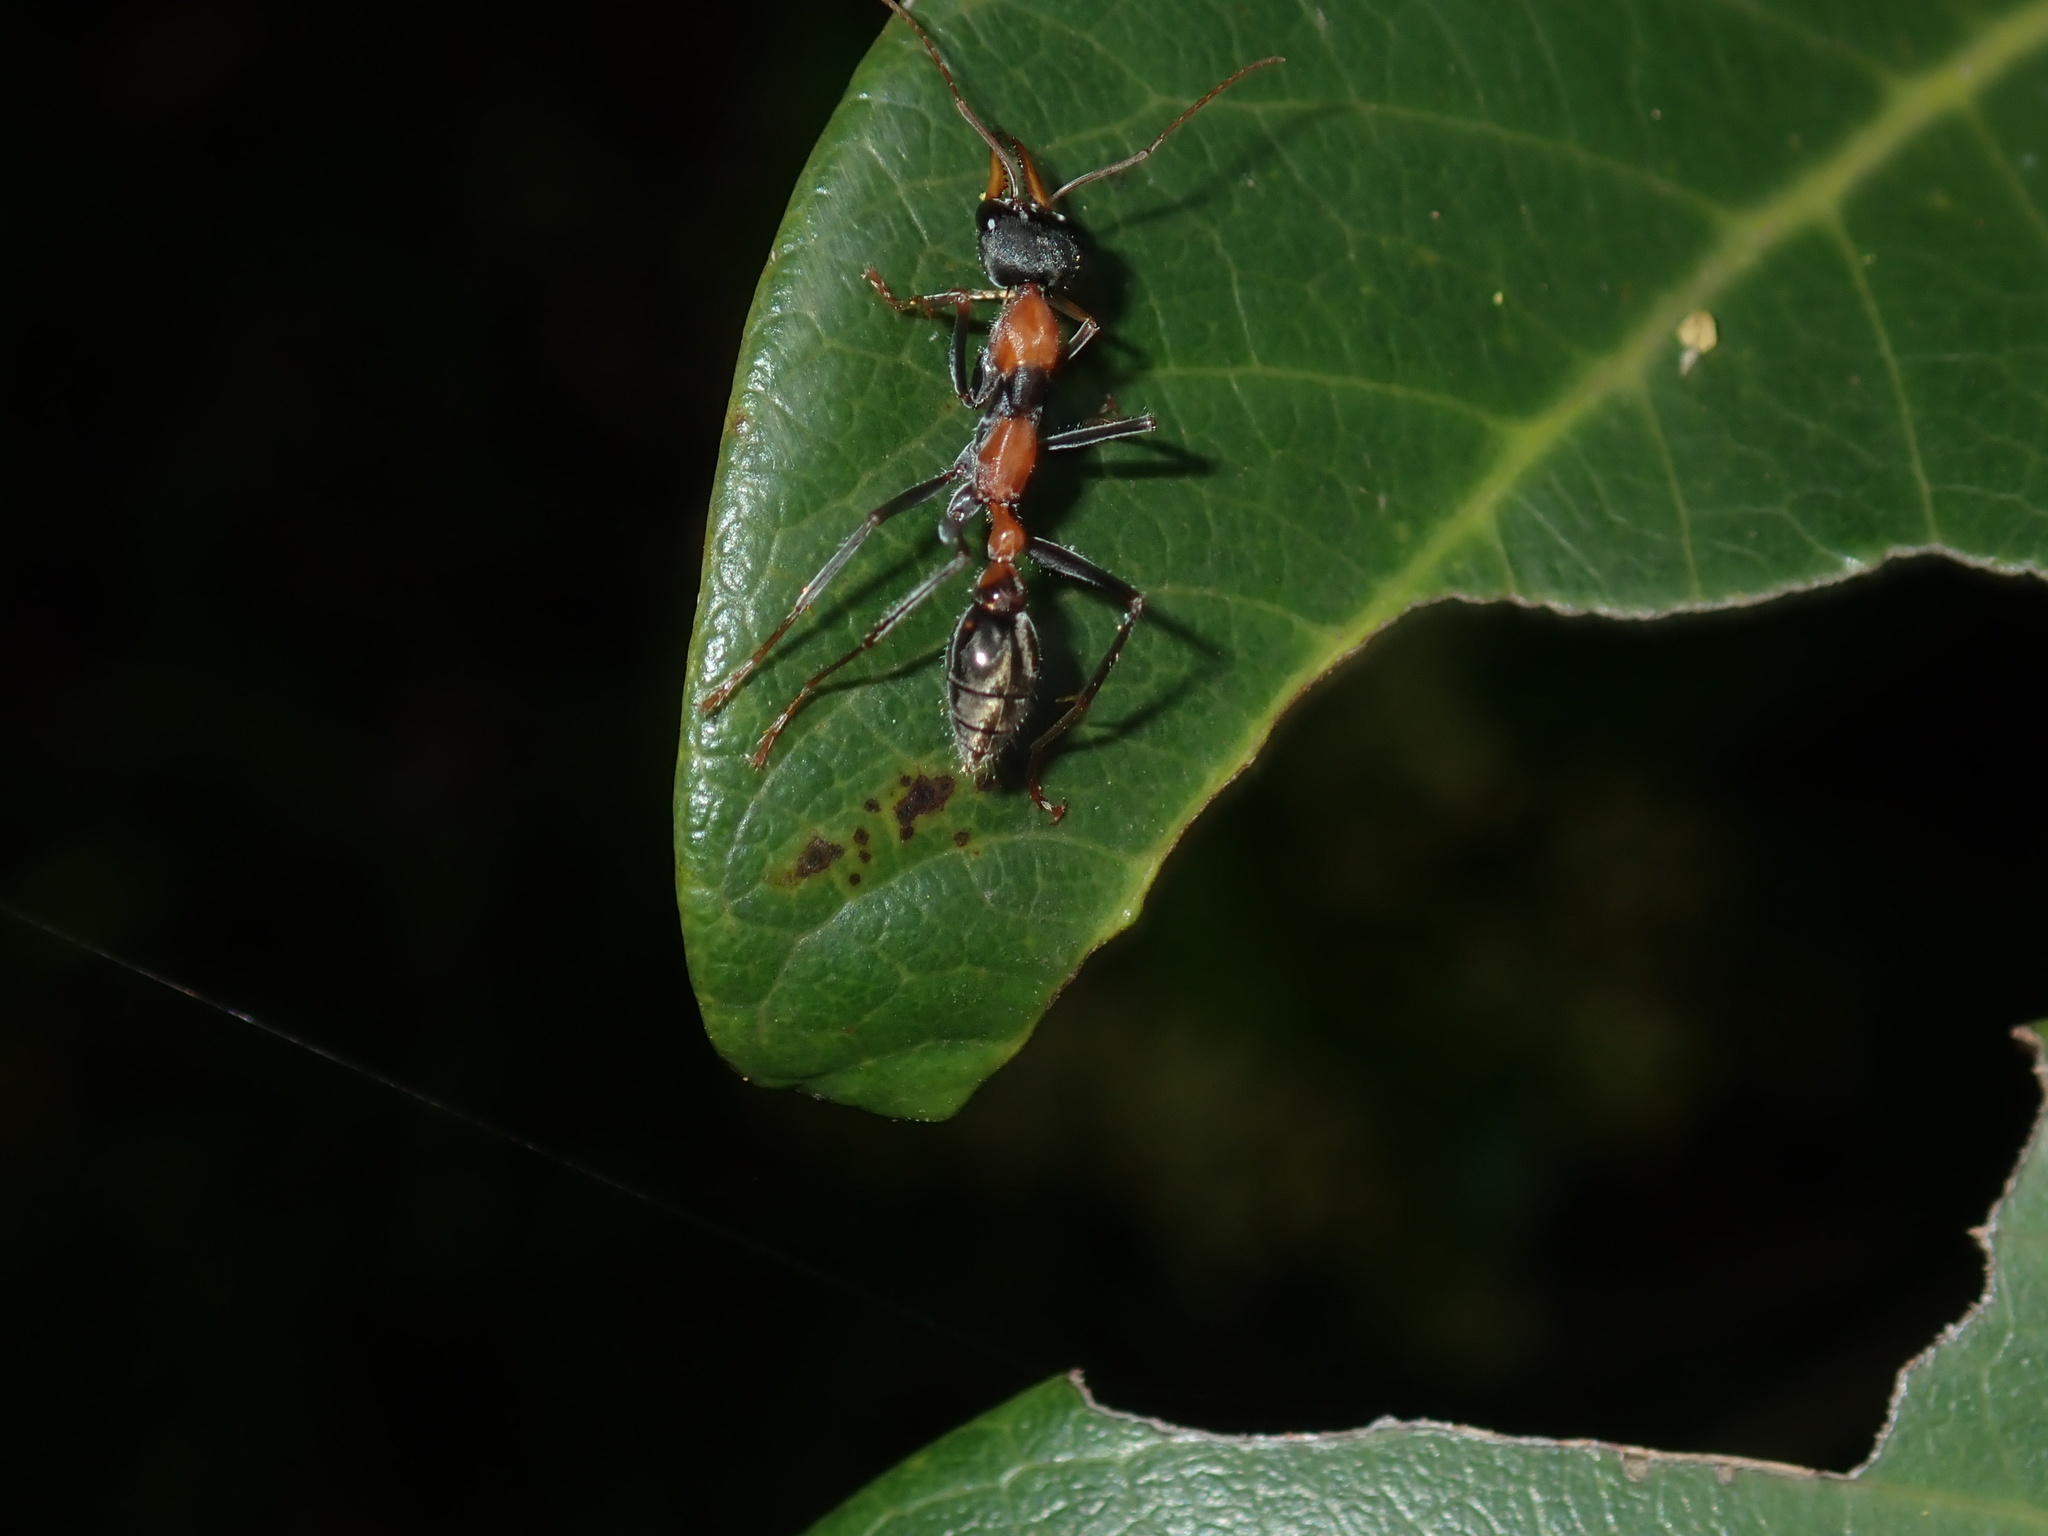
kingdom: Animalia
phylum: Arthropoda
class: Insecta
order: Hymenoptera
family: Formicidae
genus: Myrmecia
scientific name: Myrmecia nigrocincta
